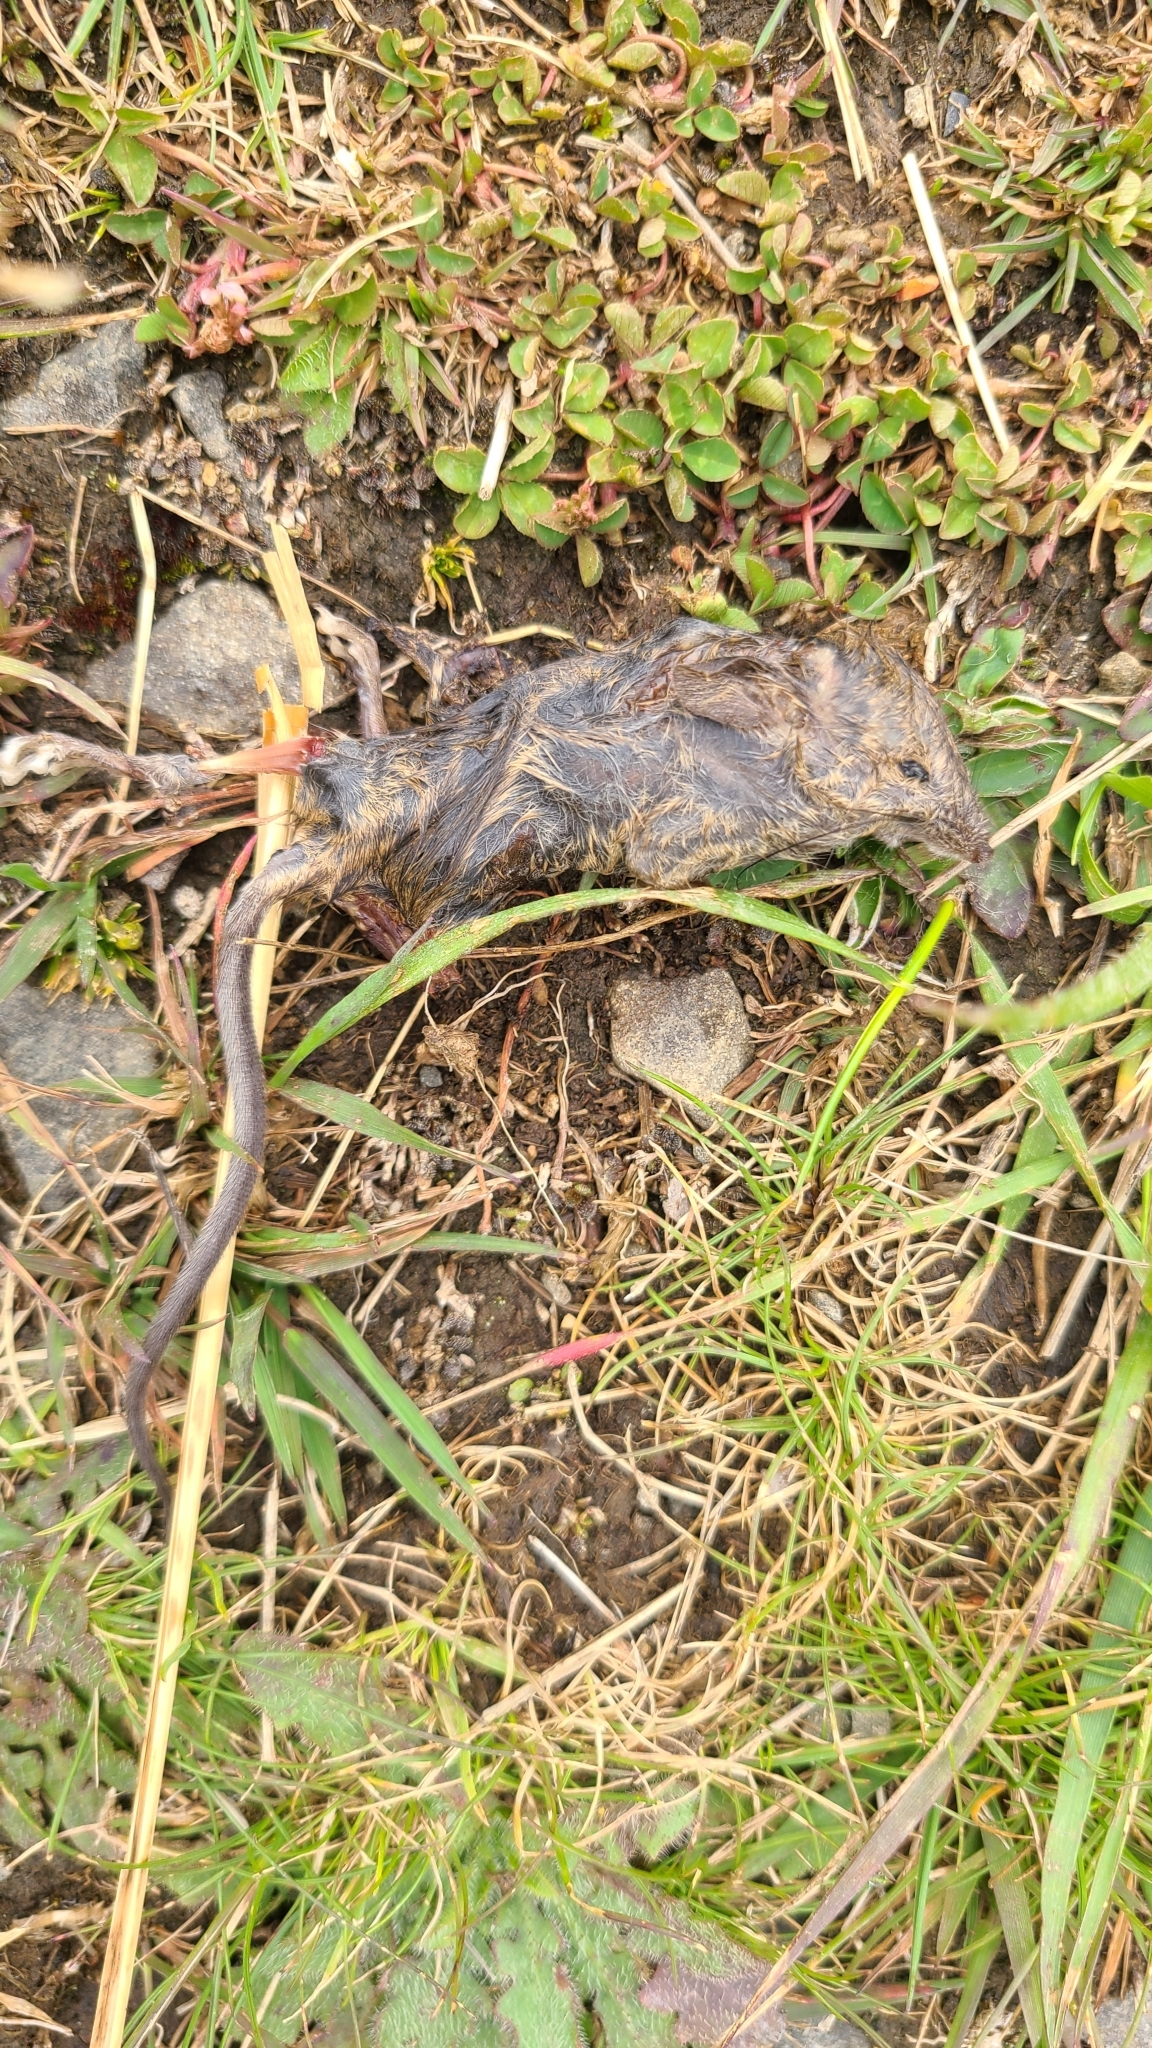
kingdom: Animalia
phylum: Chordata
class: Mammalia
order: Rodentia
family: Muridae
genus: Mus
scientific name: Mus musculus
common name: House mouse
